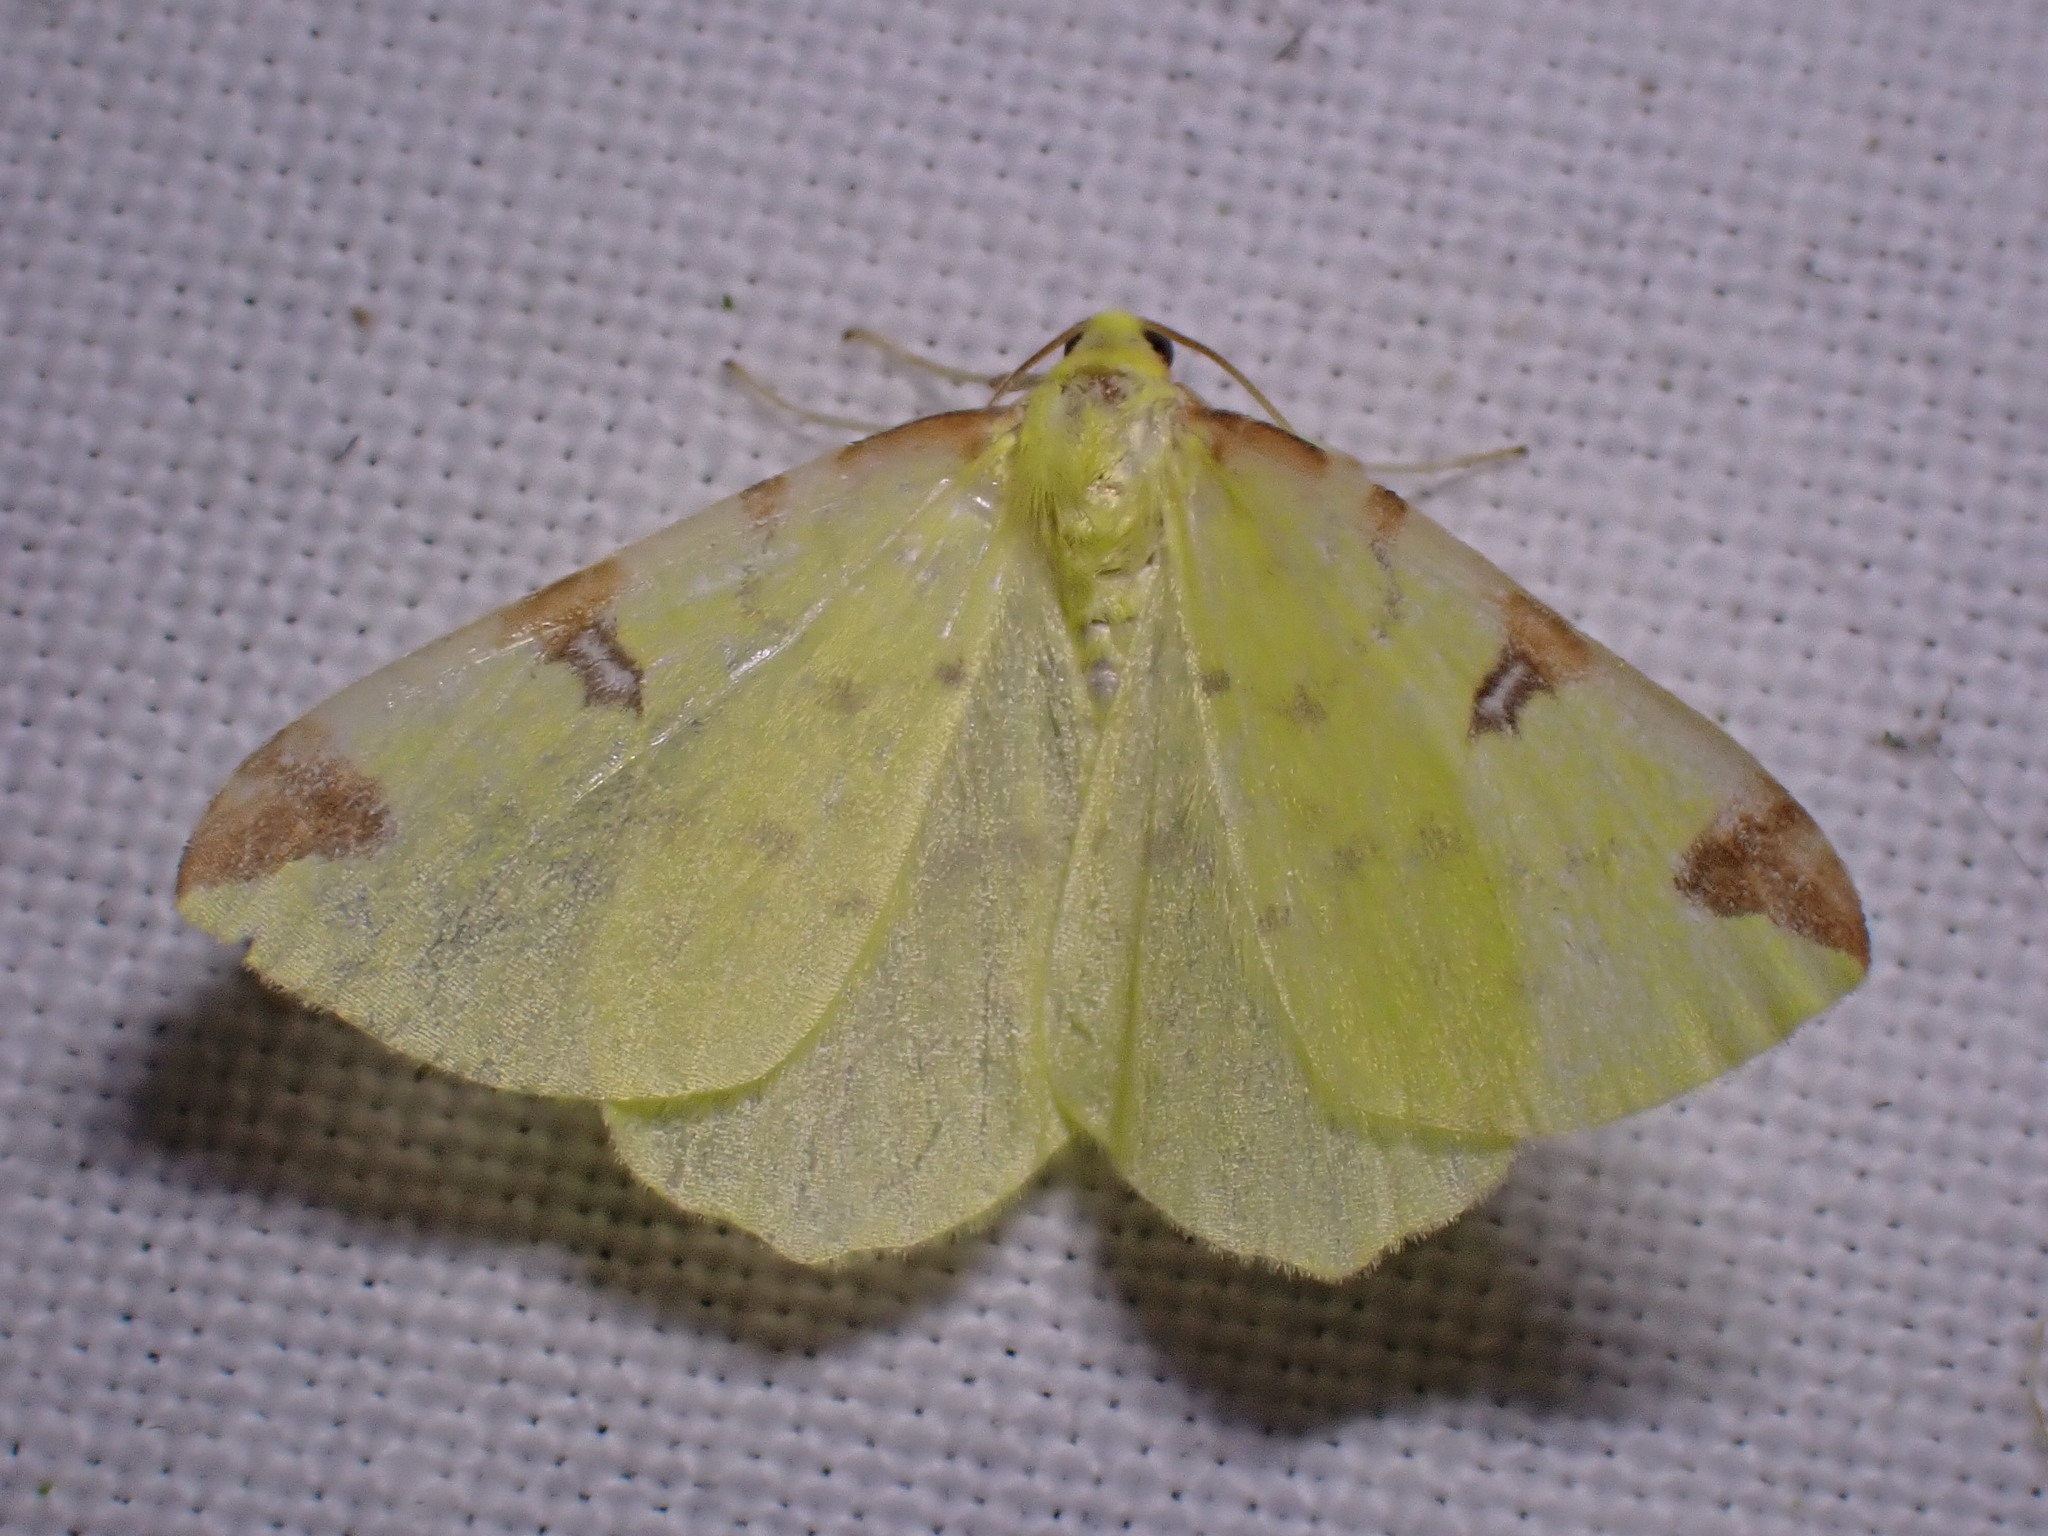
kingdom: Animalia
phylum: Arthropoda
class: Insecta
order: Lepidoptera
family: Geometridae
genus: Opisthograptis
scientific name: Opisthograptis luteolata
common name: Brimstone moth
